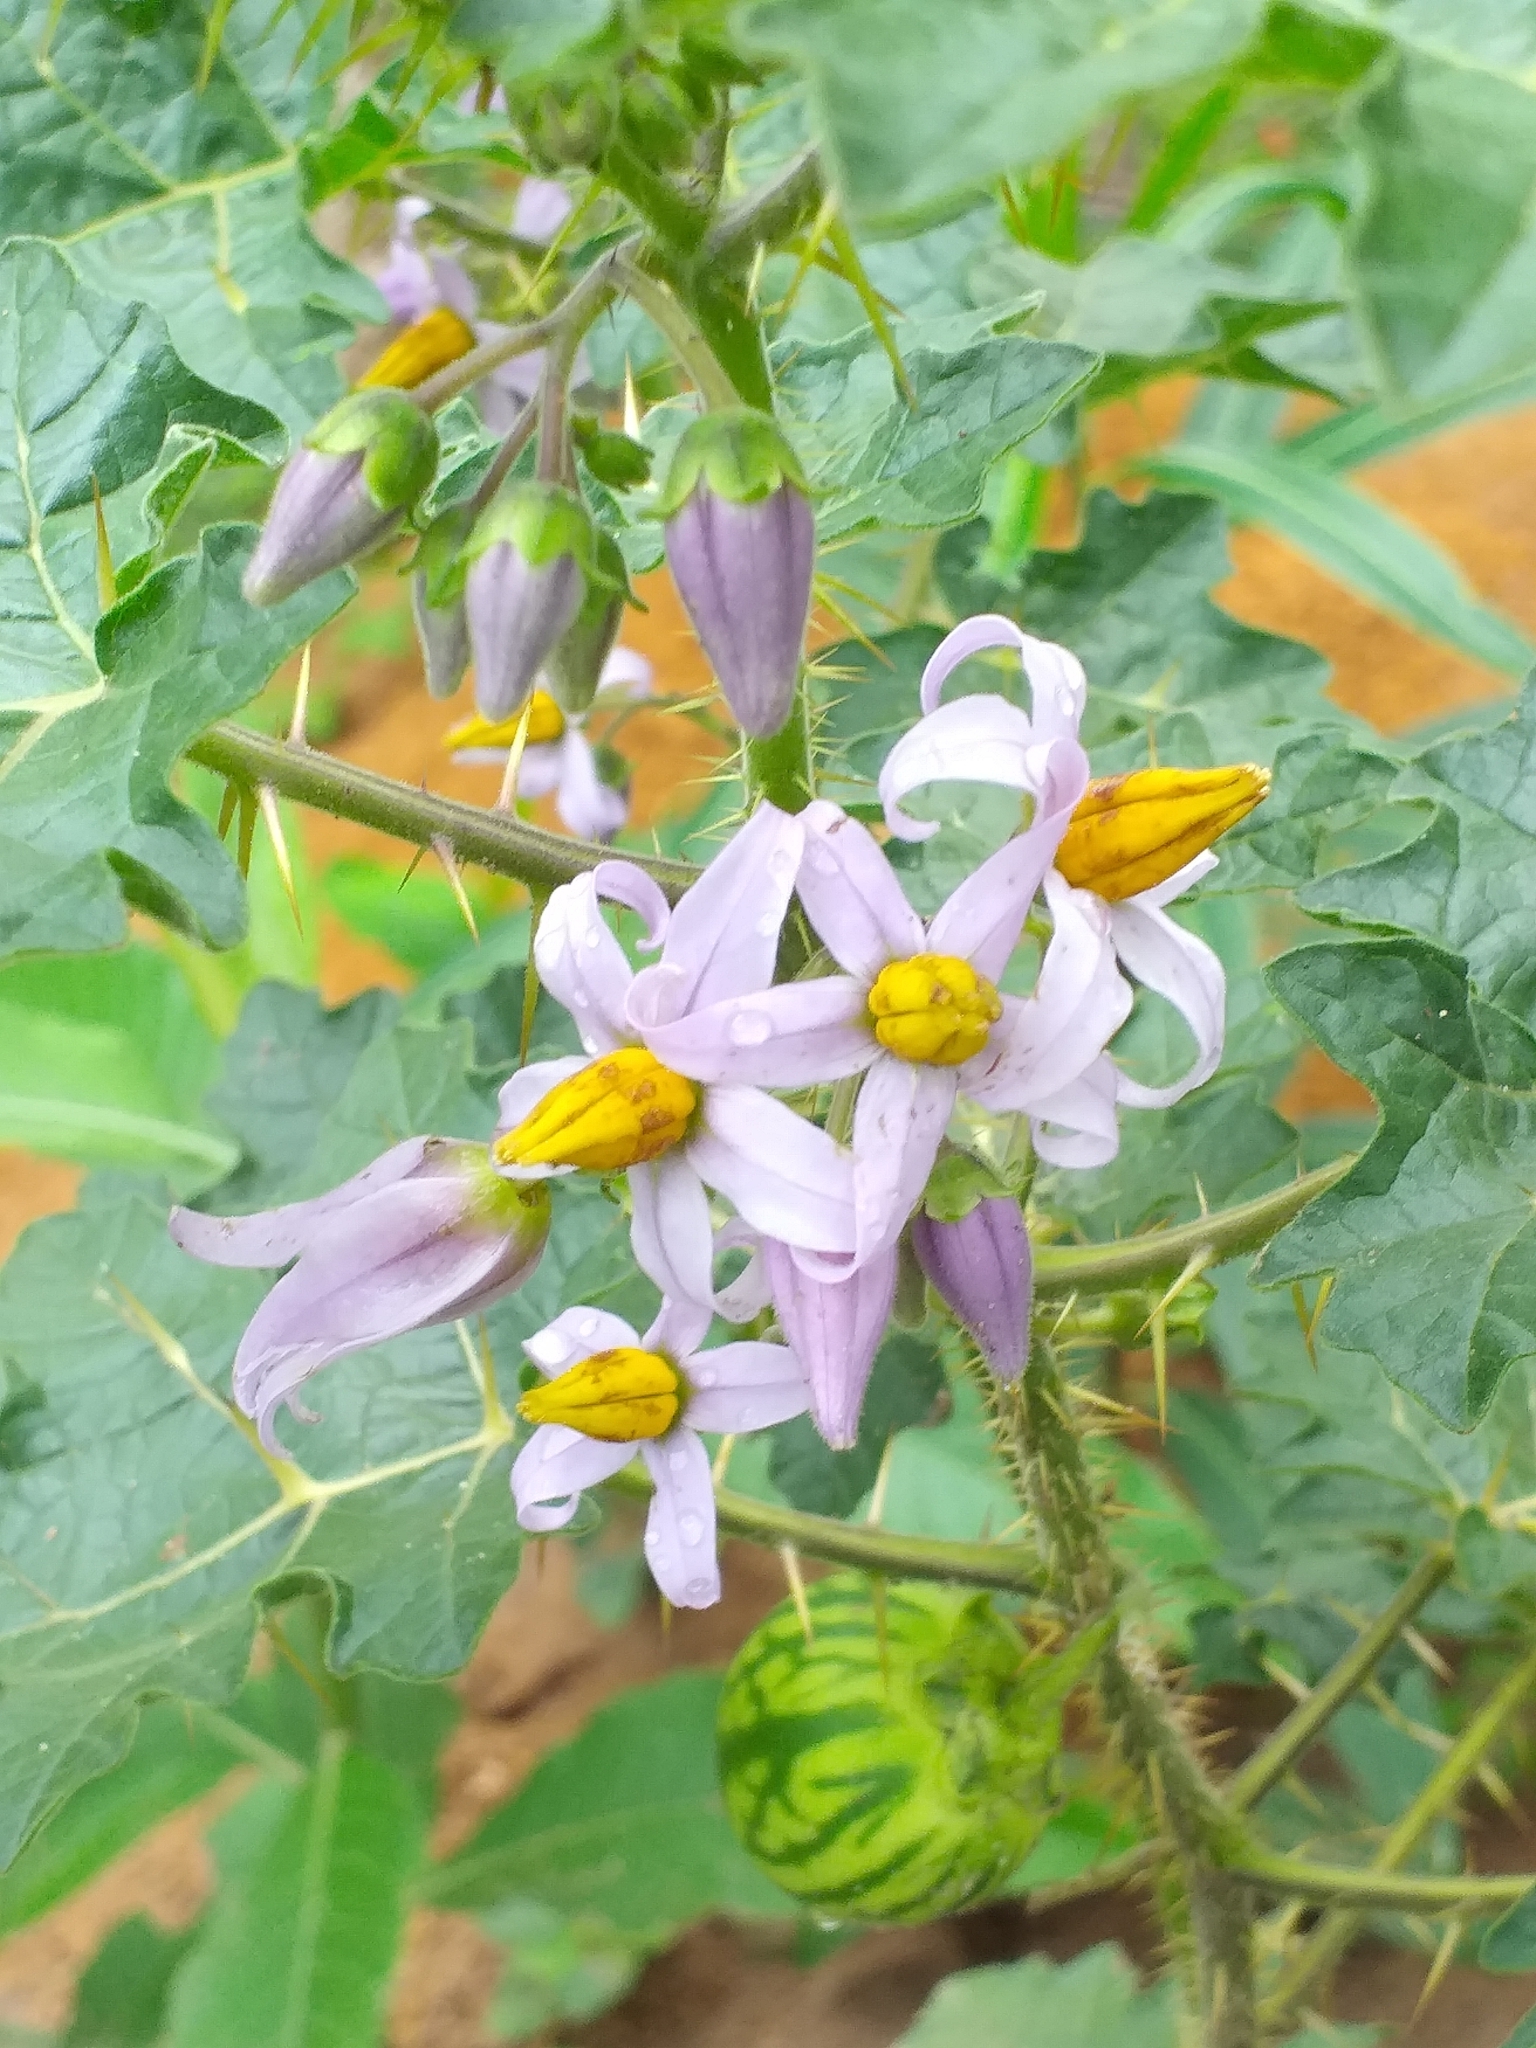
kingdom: Plantae
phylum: Tracheophyta
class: Magnoliopsida
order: Solanales
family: Solanaceae
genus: Solanum
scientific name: Solanum palinacanthum
